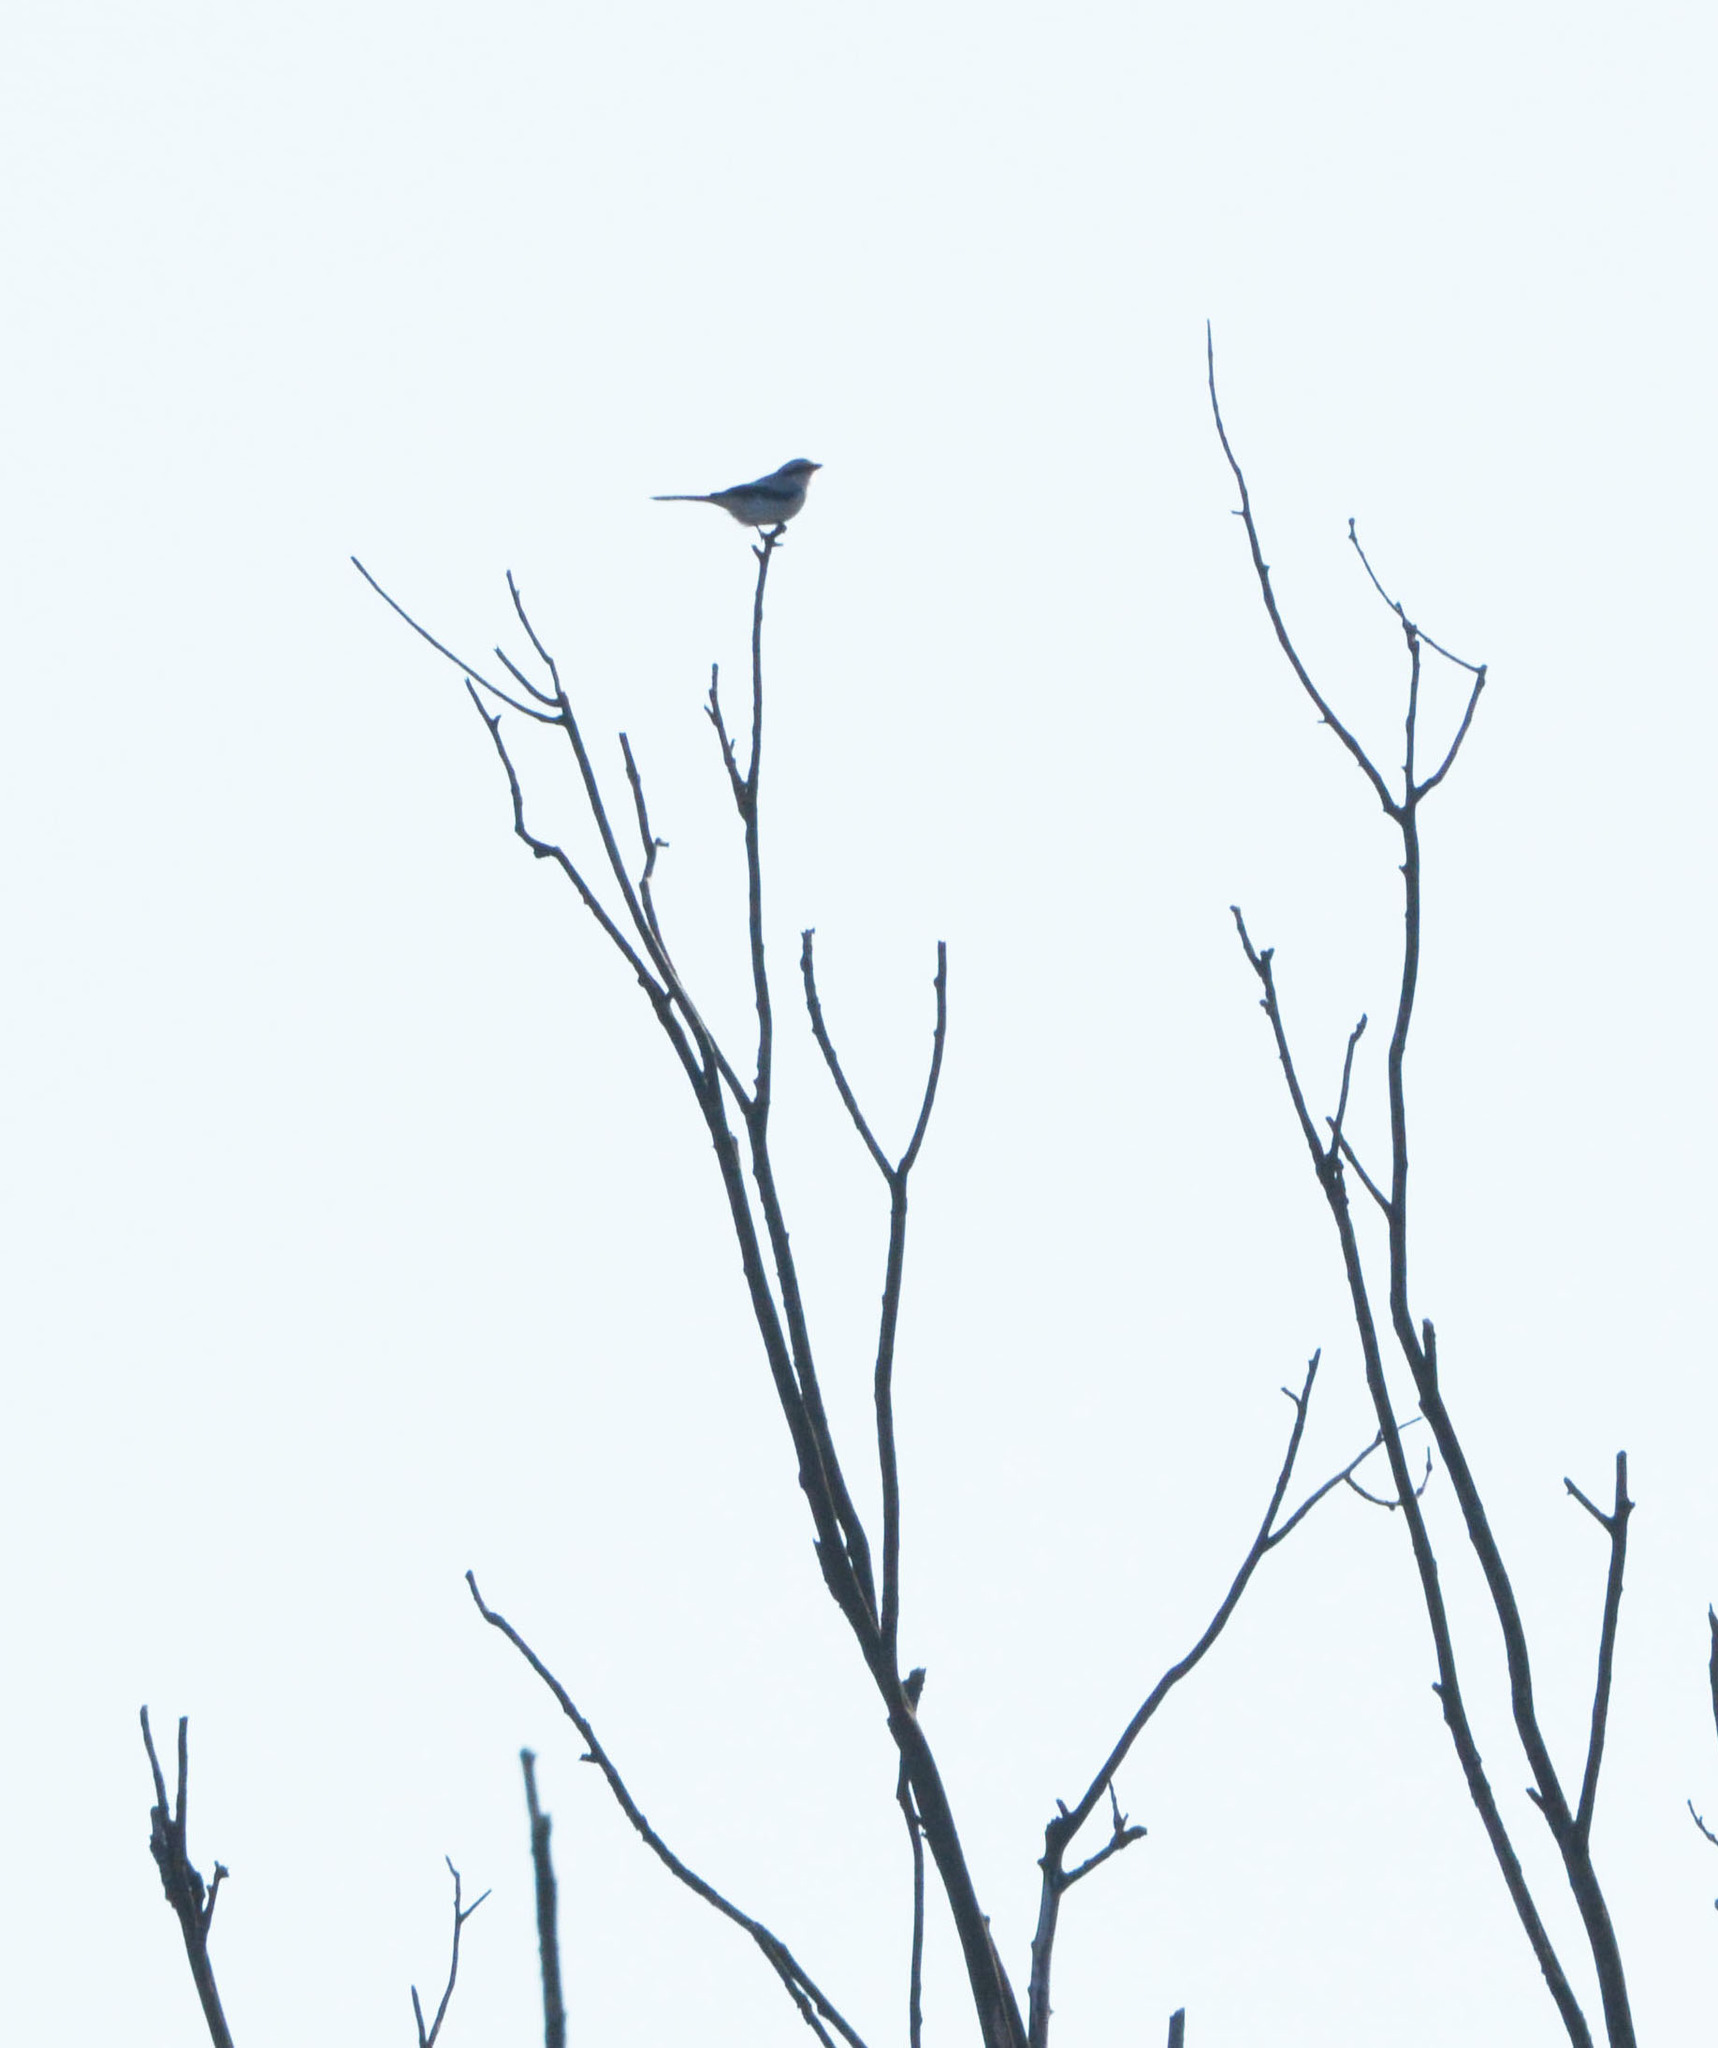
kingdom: Animalia
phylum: Chordata
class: Aves
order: Passeriformes
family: Laniidae
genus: Lanius
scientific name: Lanius excubitor
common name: Great grey shrike
